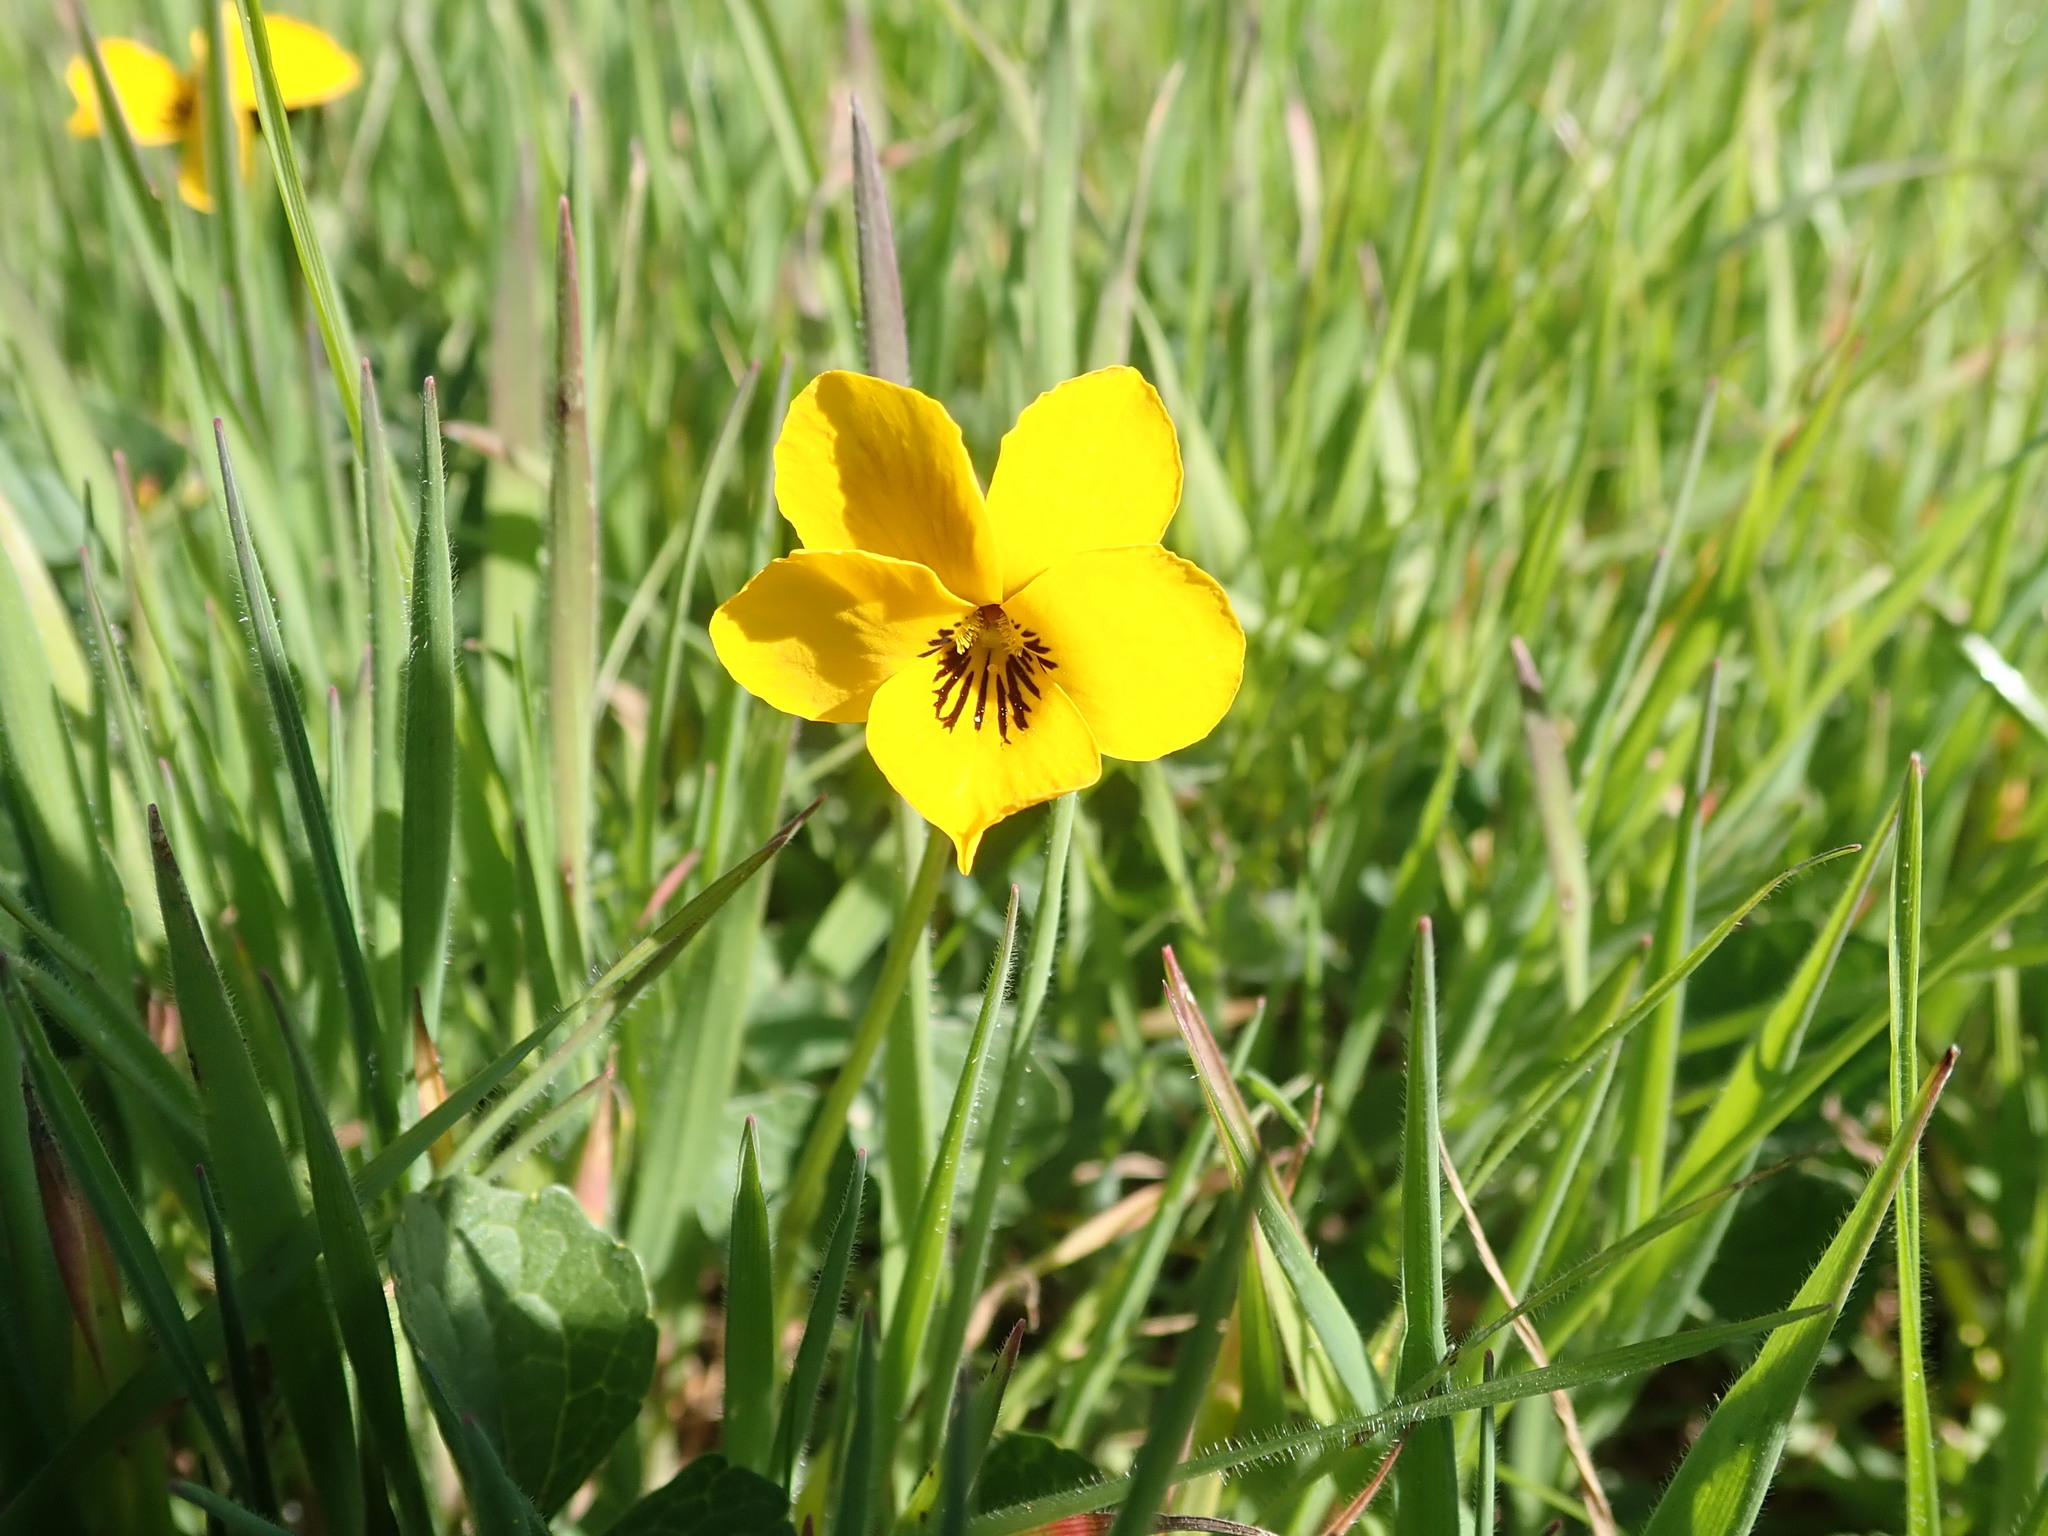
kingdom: Plantae
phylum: Tracheophyta
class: Magnoliopsida
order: Malpighiales
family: Violaceae
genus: Viola
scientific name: Viola pedunculata
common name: California golden violet
